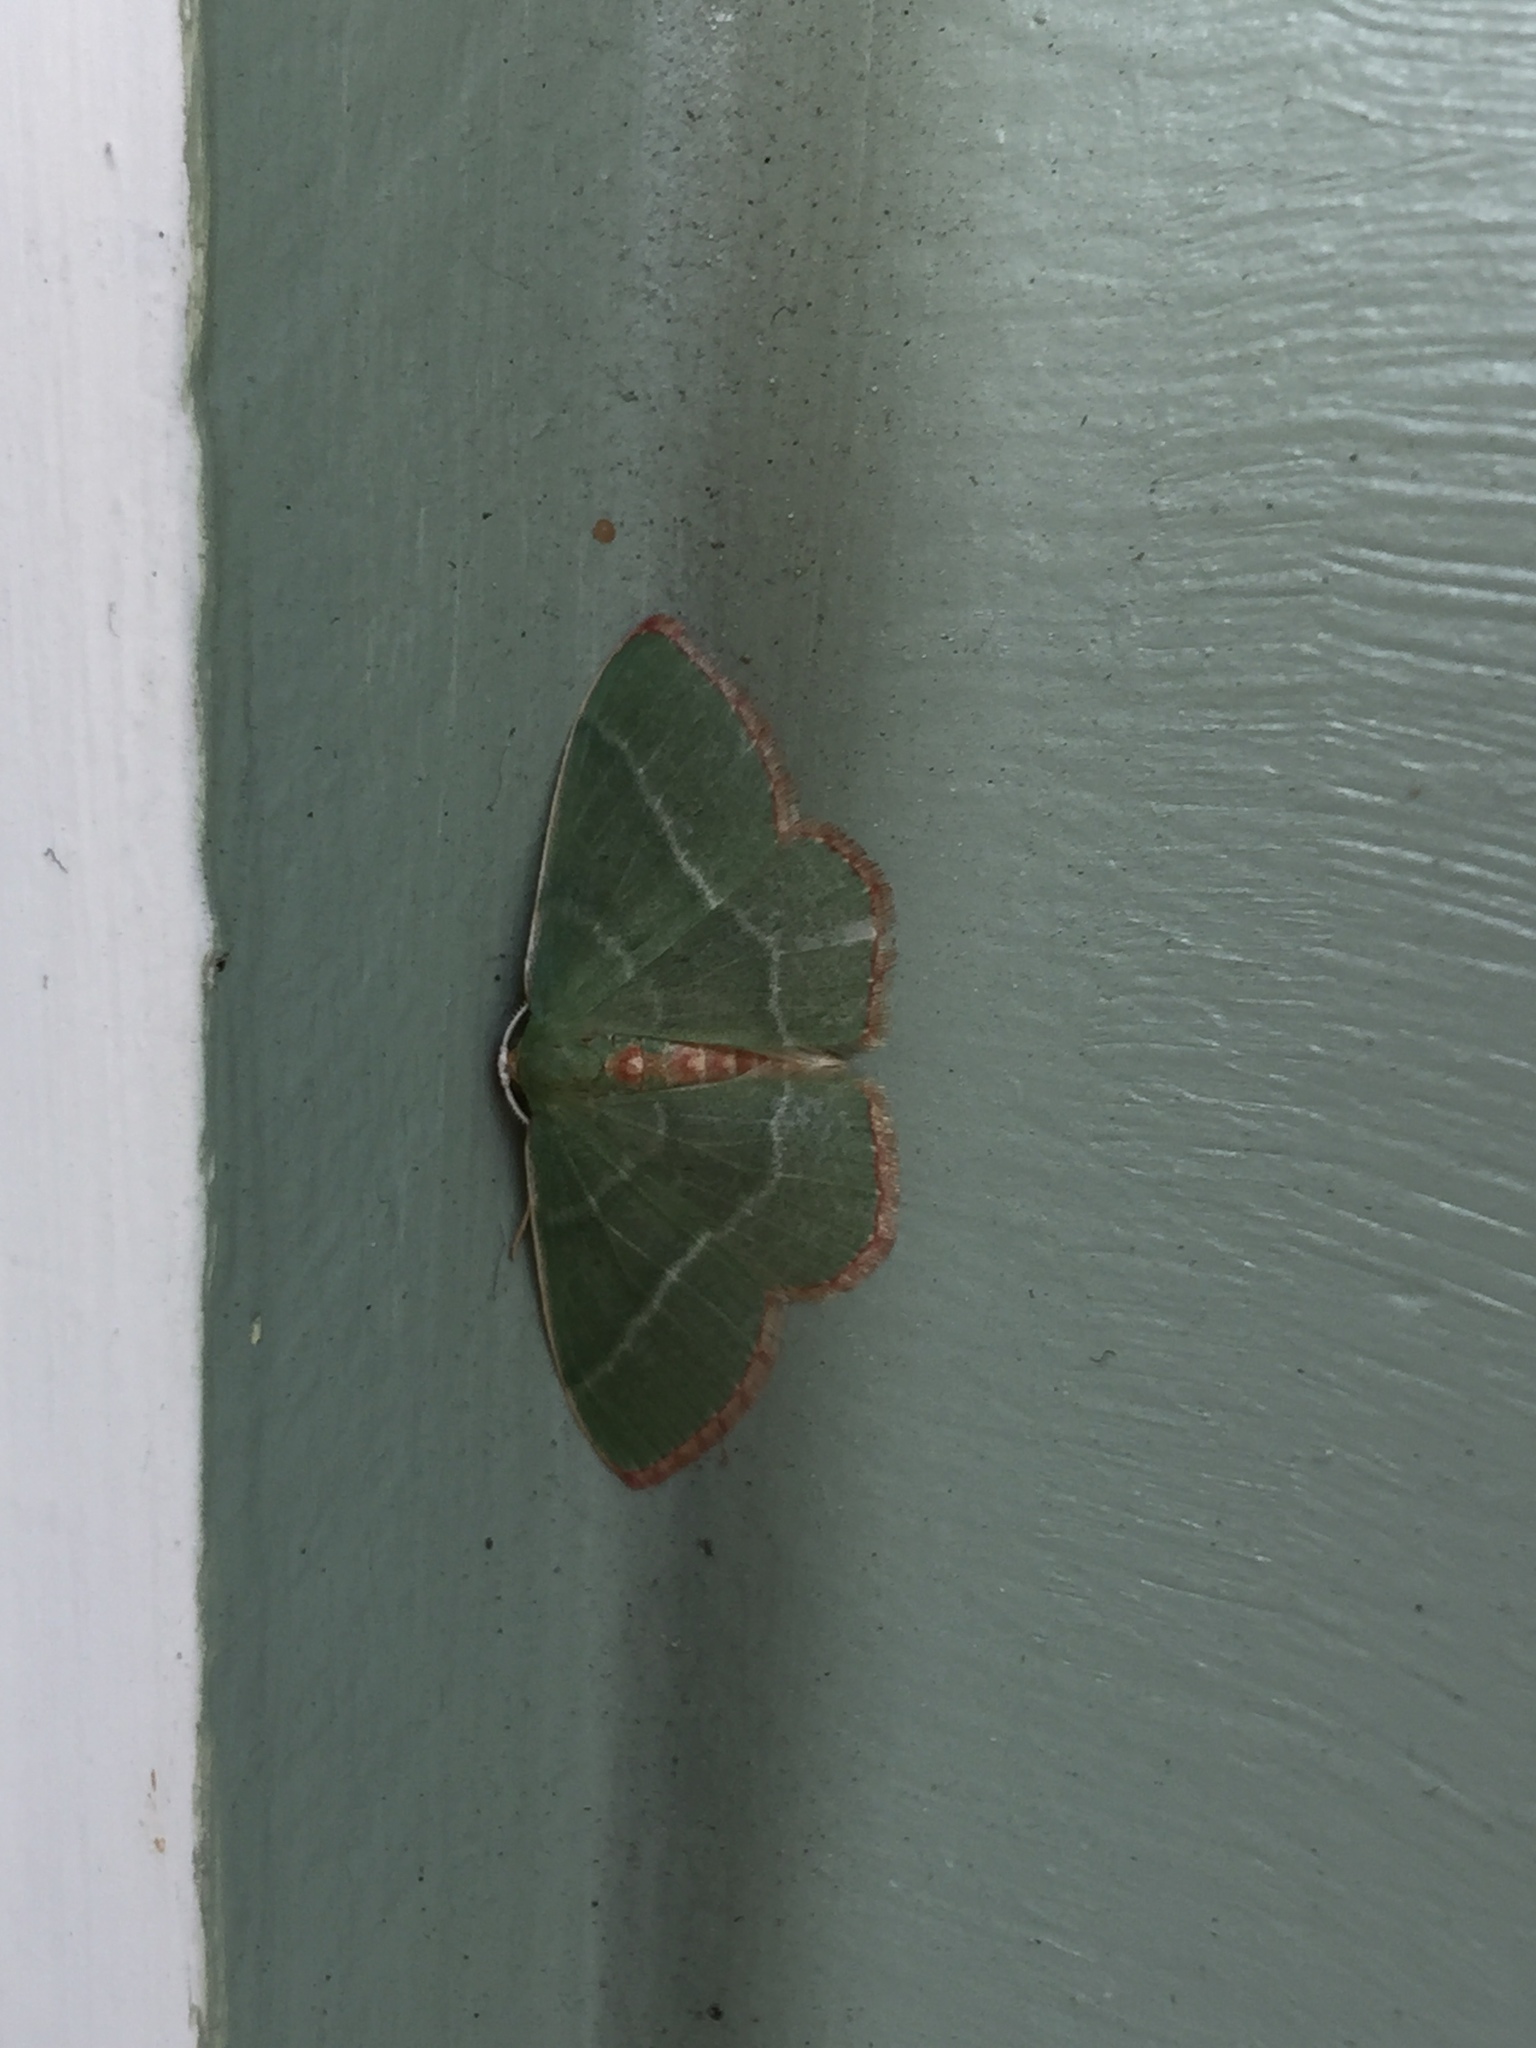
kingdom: Animalia
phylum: Arthropoda
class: Insecta
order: Lepidoptera
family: Geometridae
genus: Nemoria
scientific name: Nemoria bistriaria
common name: Red-fringed emerald
